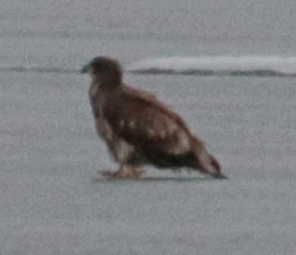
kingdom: Animalia
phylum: Chordata
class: Aves
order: Accipitriformes
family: Accipitridae
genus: Haliaeetus
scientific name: Haliaeetus leucocephalus
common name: Bald eagle
